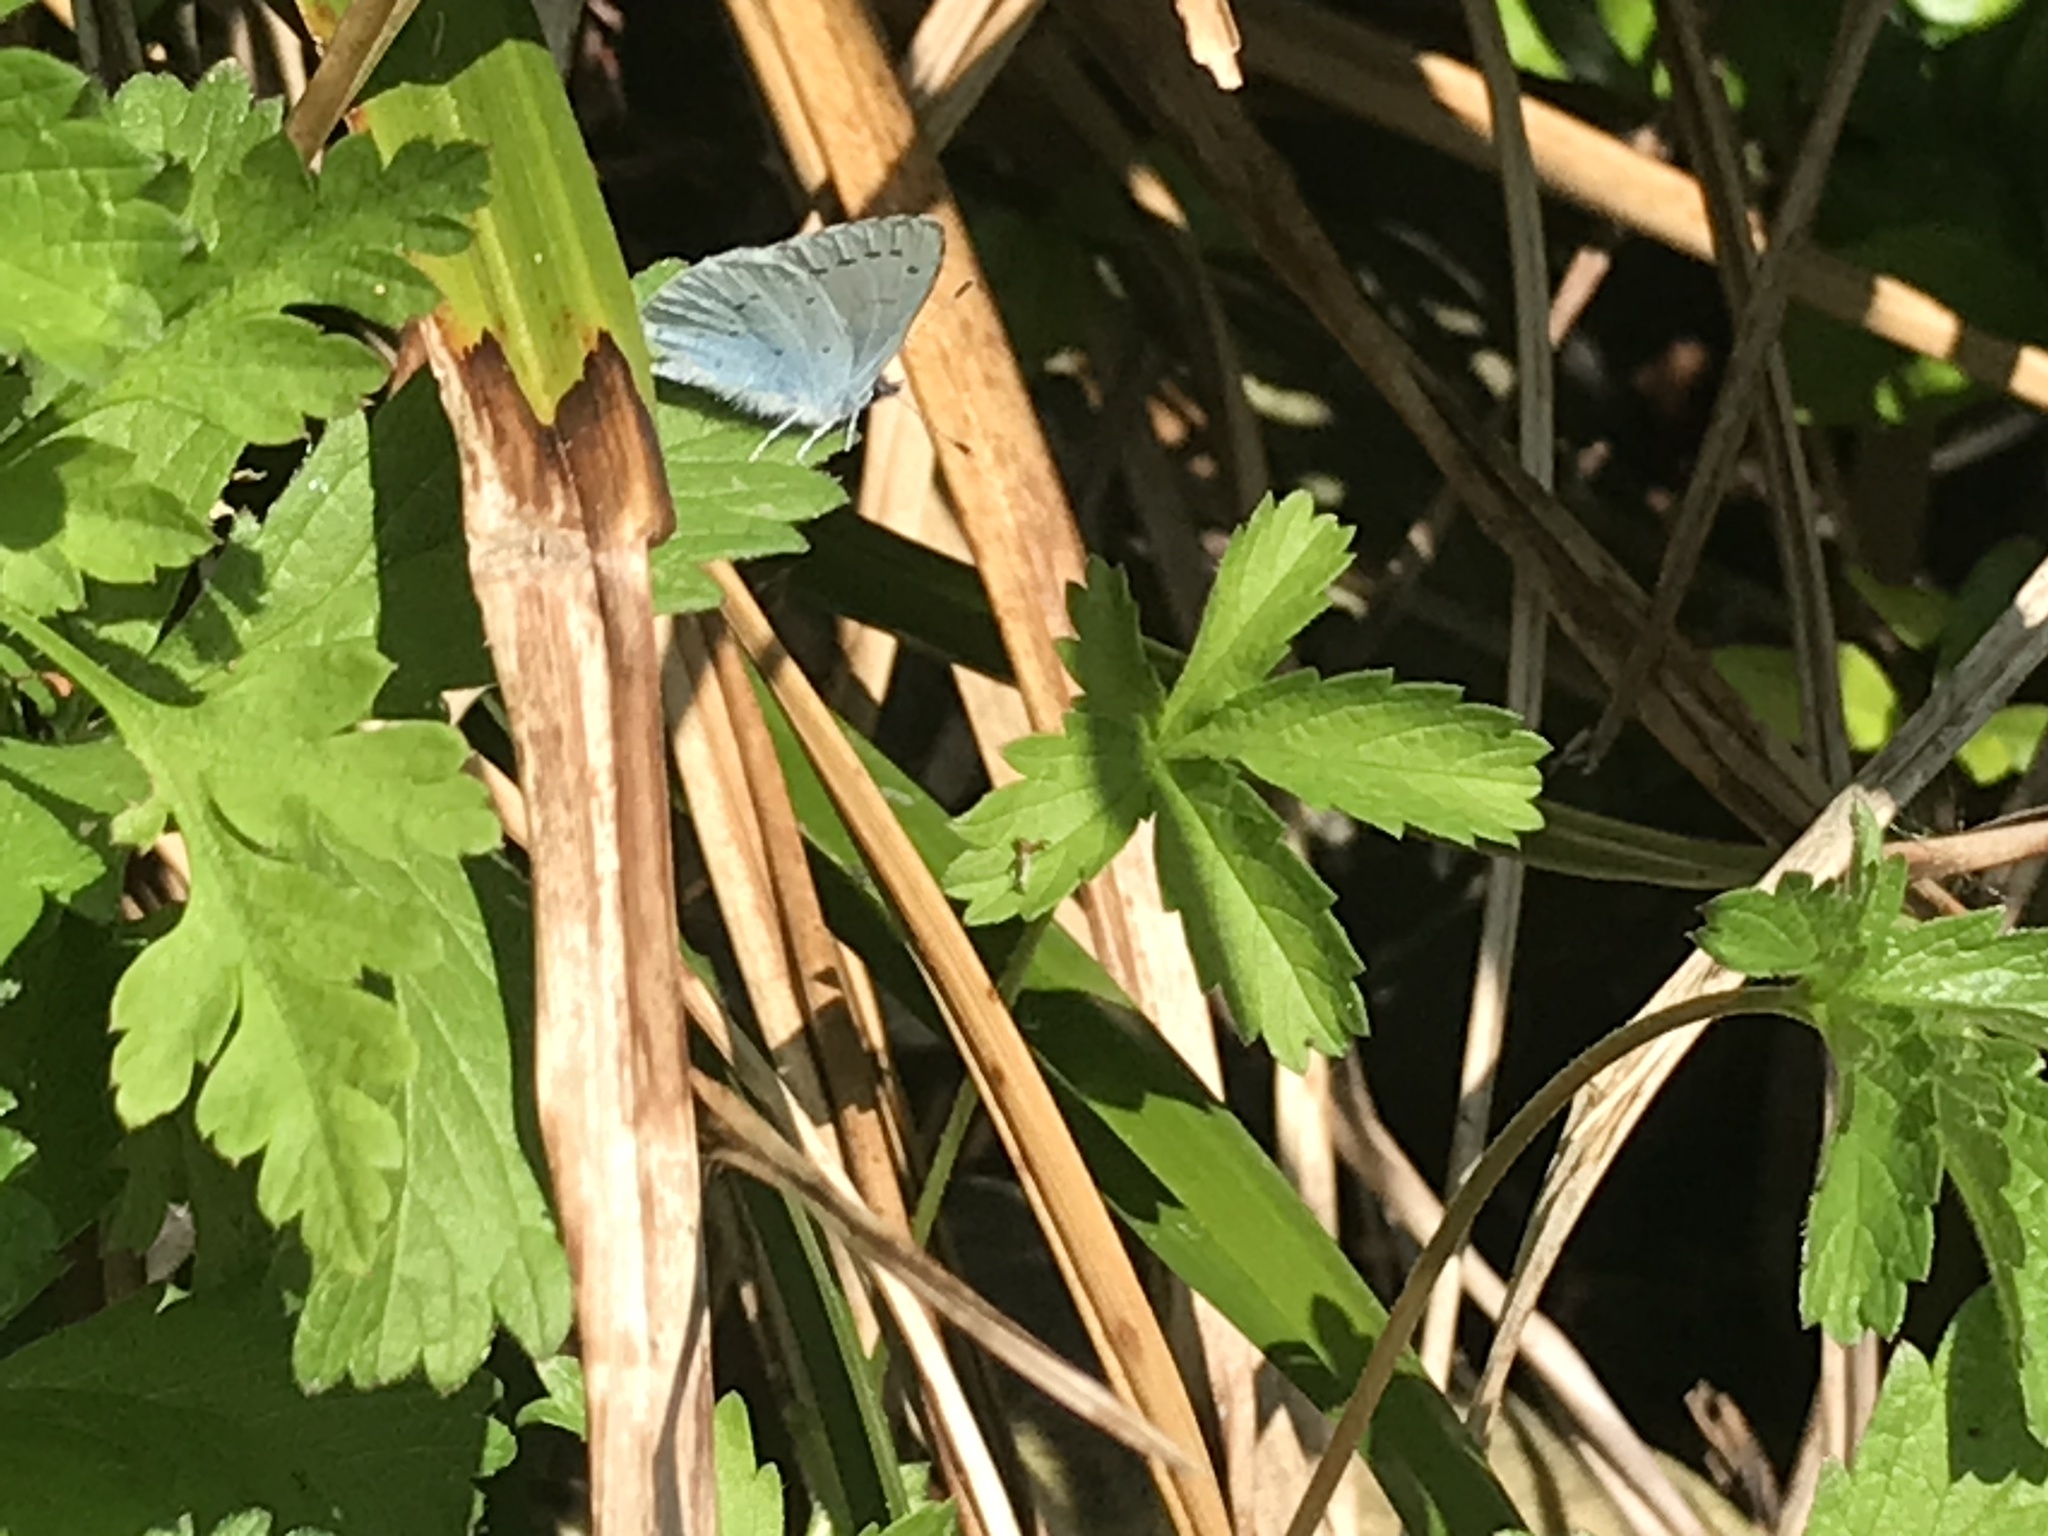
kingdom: Animalia
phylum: Arthropoda
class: Insecta
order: Lepidoptera
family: Lycaenidae
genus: Celastrina
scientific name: Celastrina argiolus
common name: Holly blue
